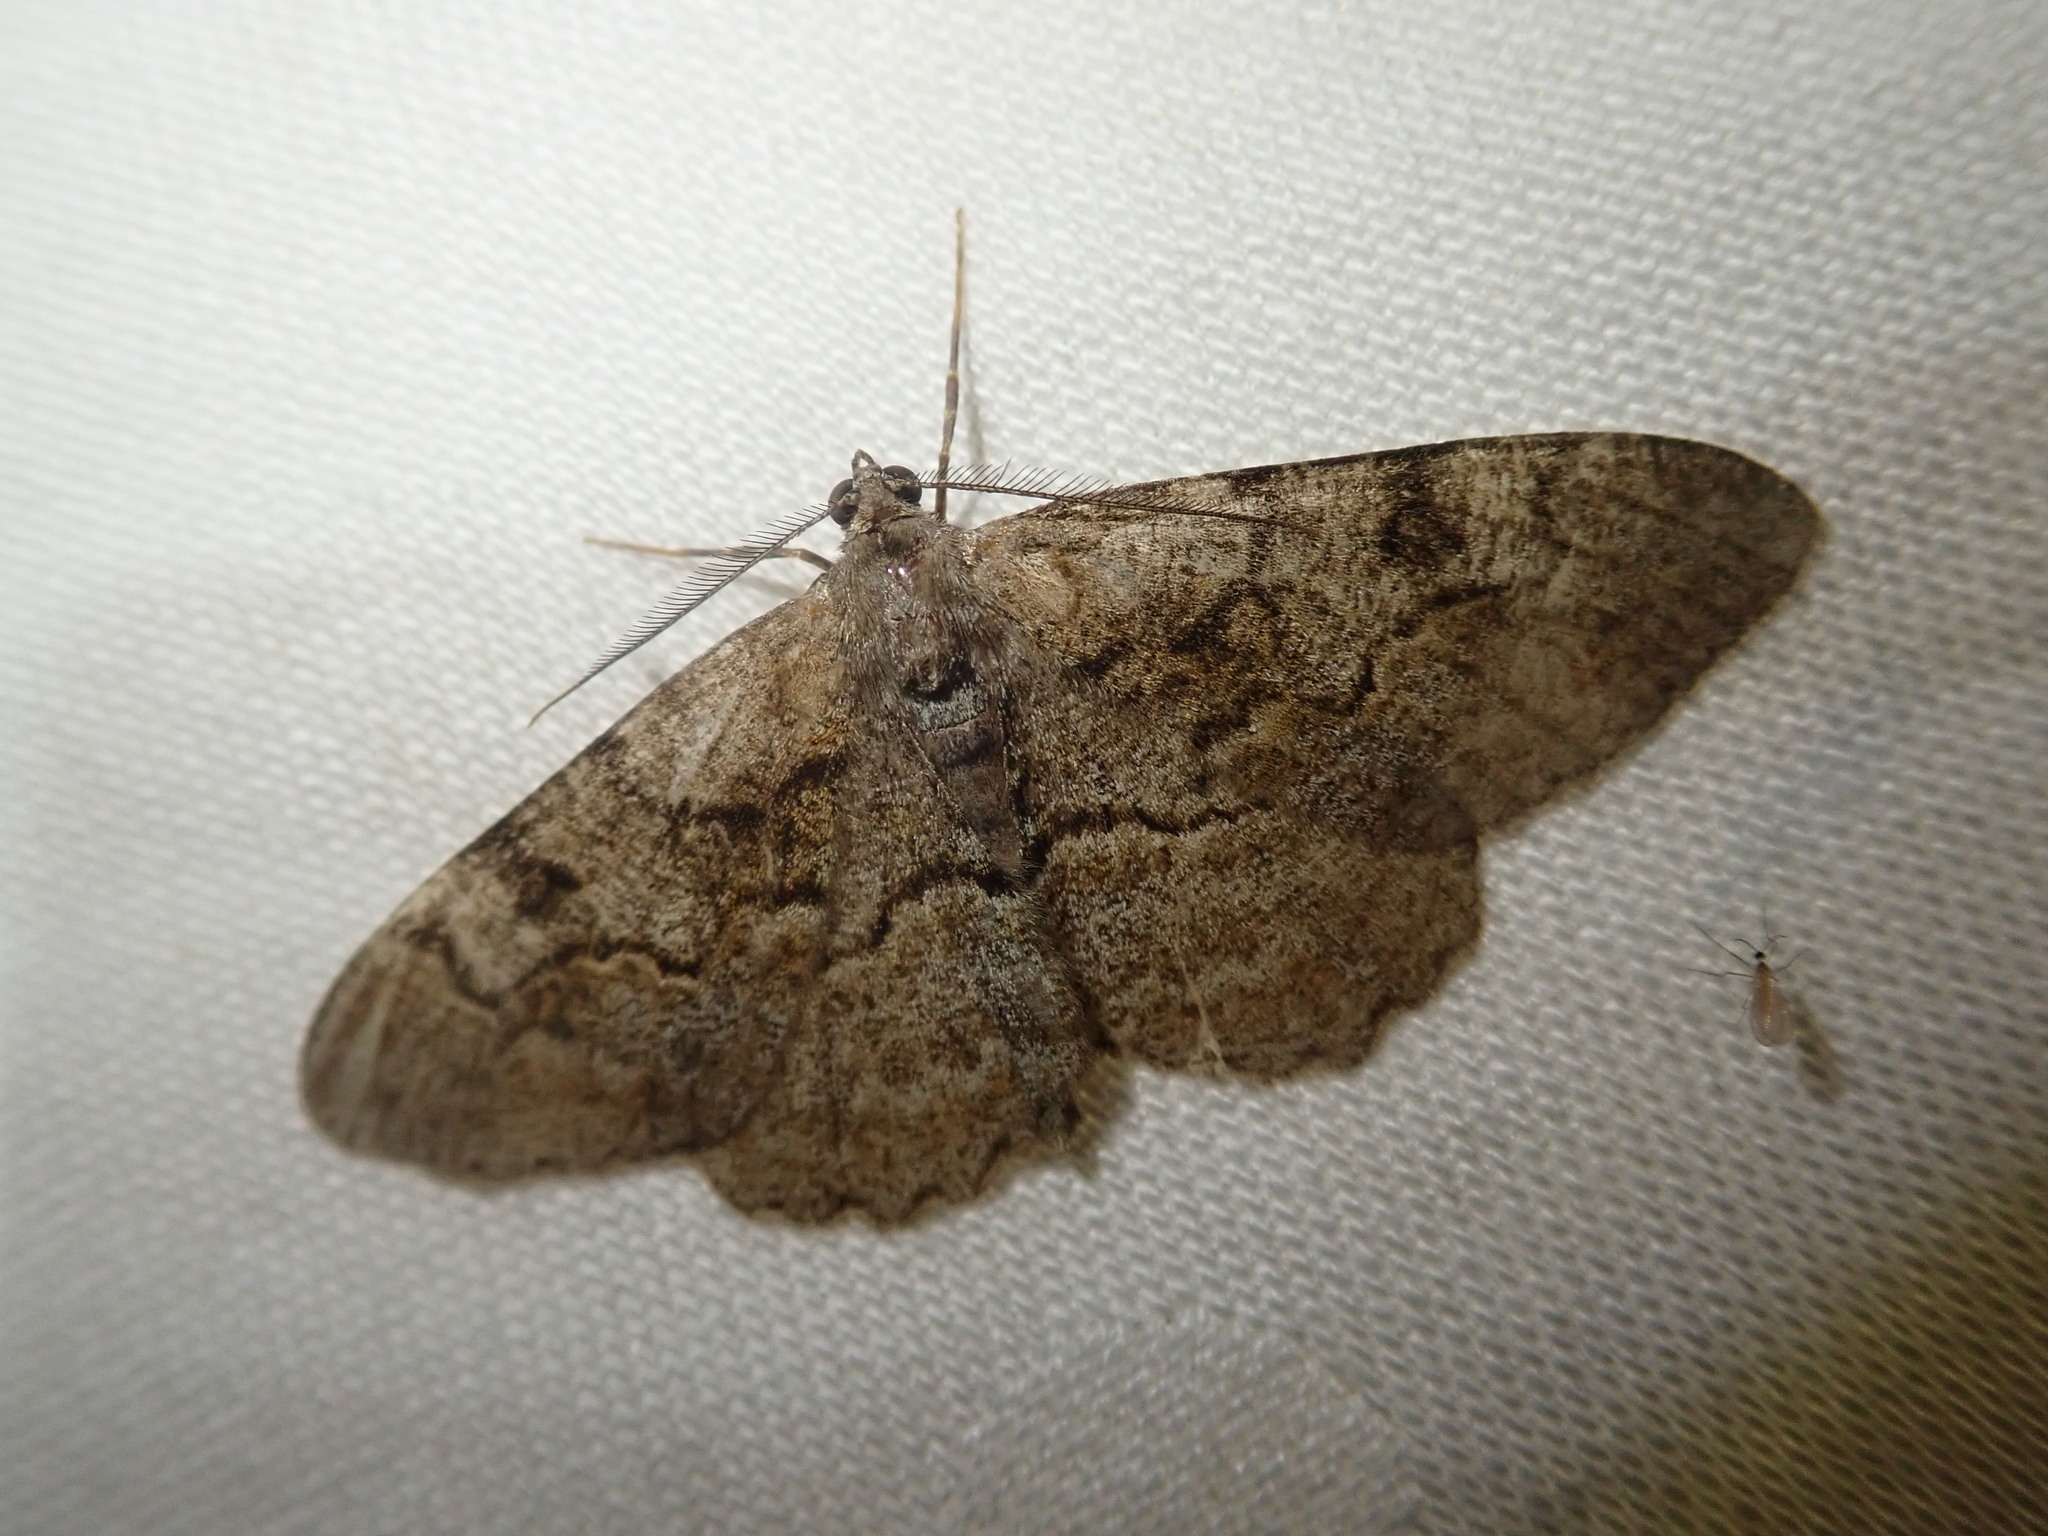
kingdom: Animalia
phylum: Arthropoda
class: Insecta
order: Lepidoptera
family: Geometridae
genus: Alcis
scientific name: Alcis repandata
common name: Mottled beauty
